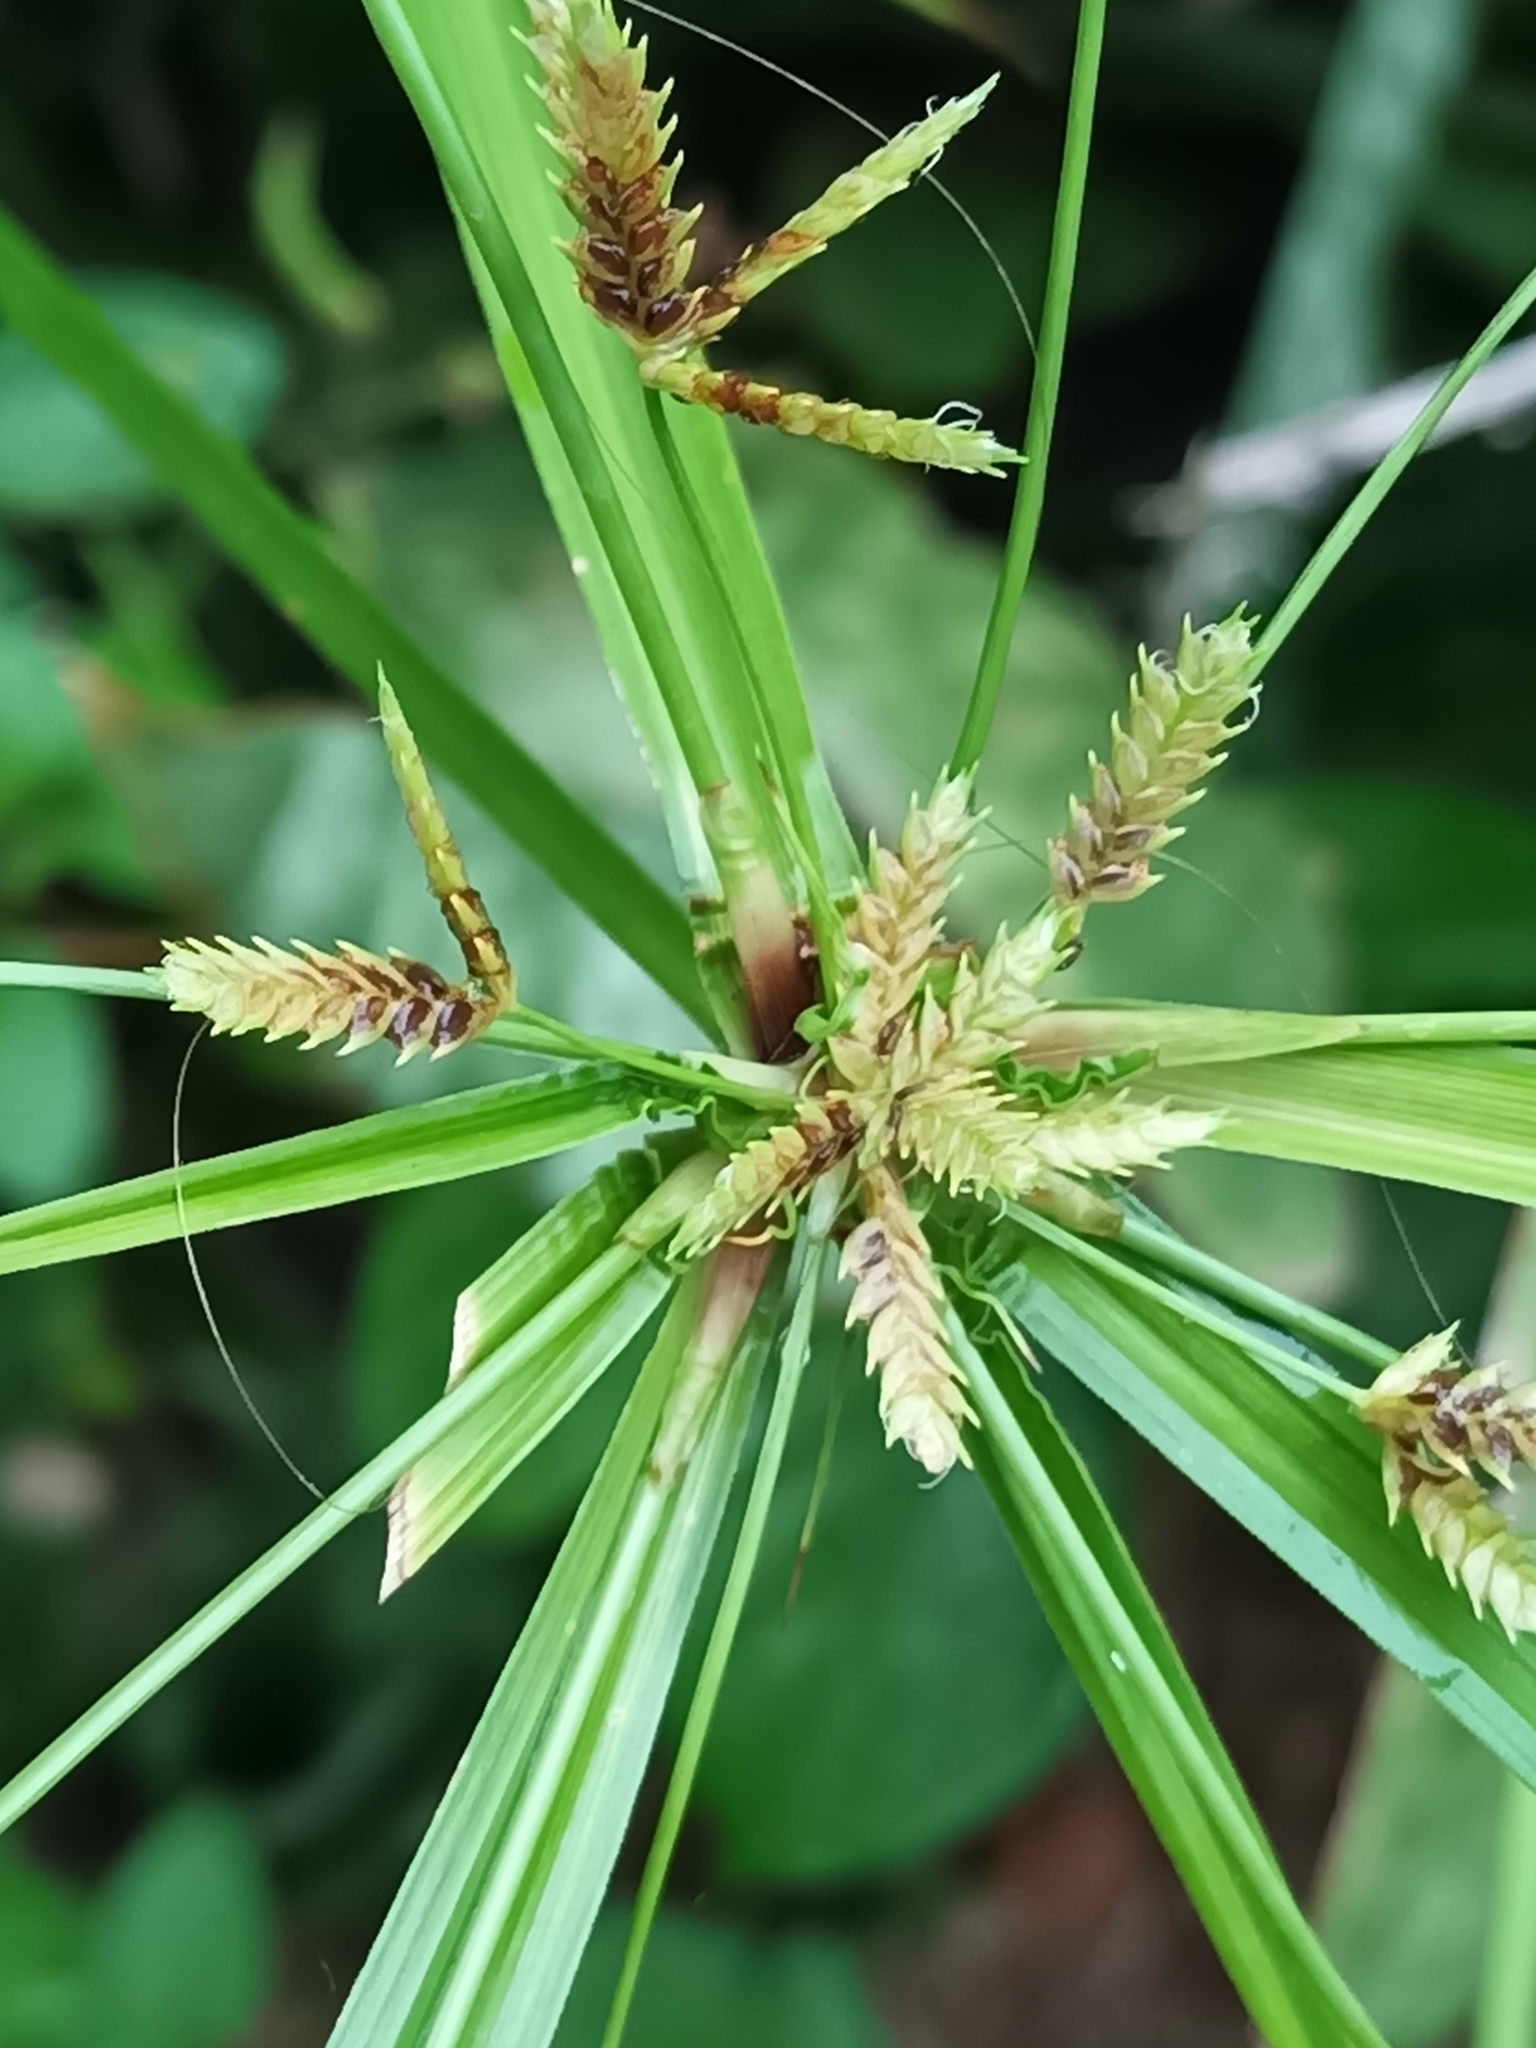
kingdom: Plantae
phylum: Tracheophyta
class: Liliopsida
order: Poales
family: Cyperaceae
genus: Cyperus
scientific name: Cyperus laxus
